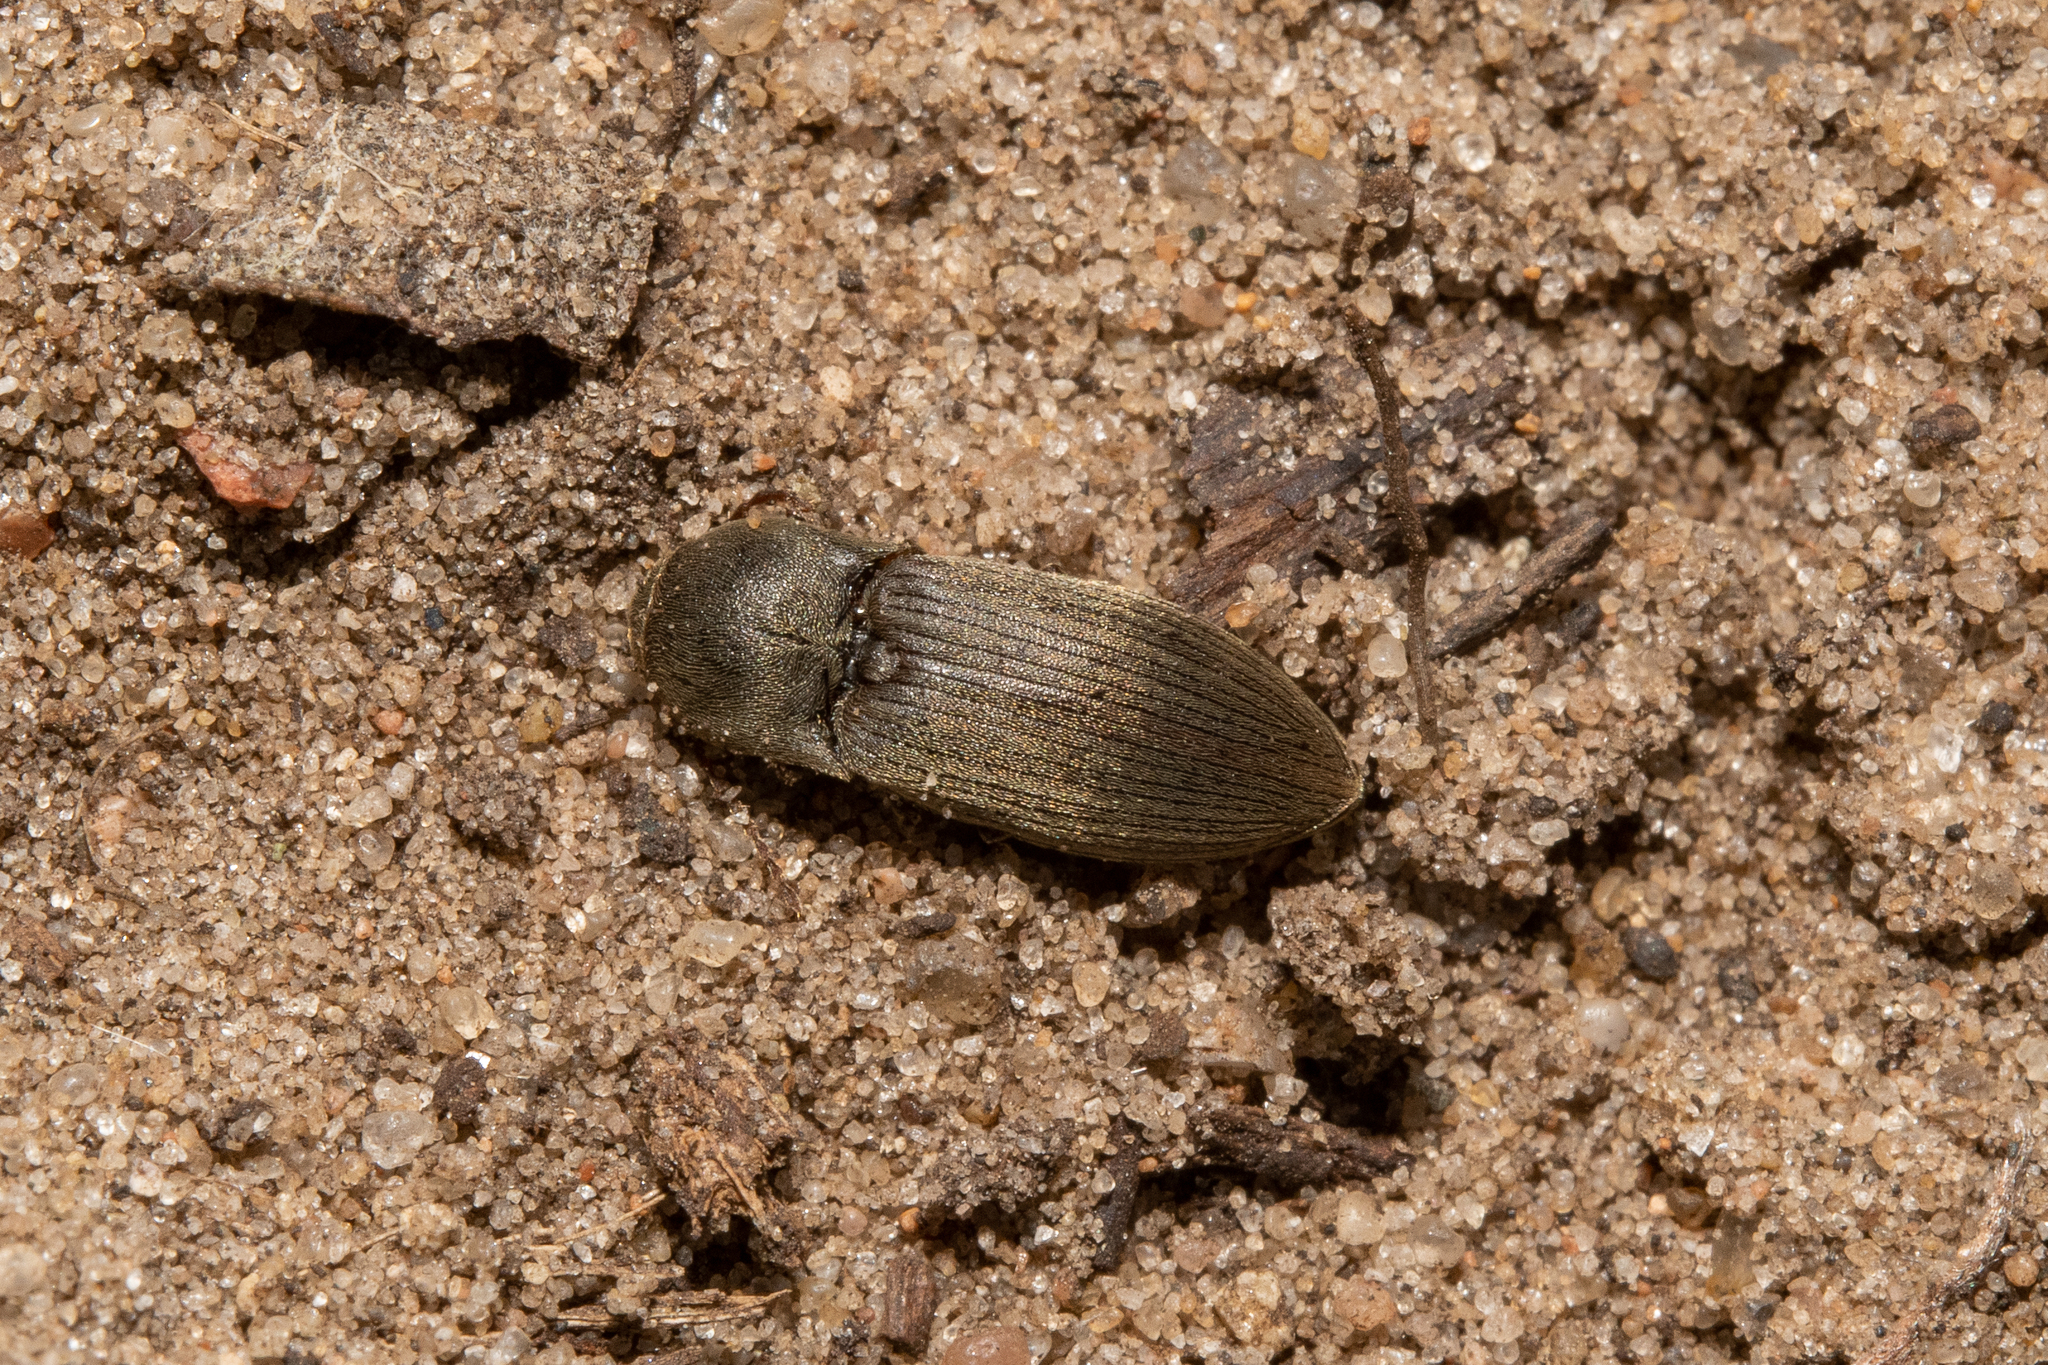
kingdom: Animalia
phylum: Arthropoda
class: Insecta
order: Coleoptera
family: Elateridae
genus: Agriotes
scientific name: Agriotes obscurus
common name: Dusky wireworm
